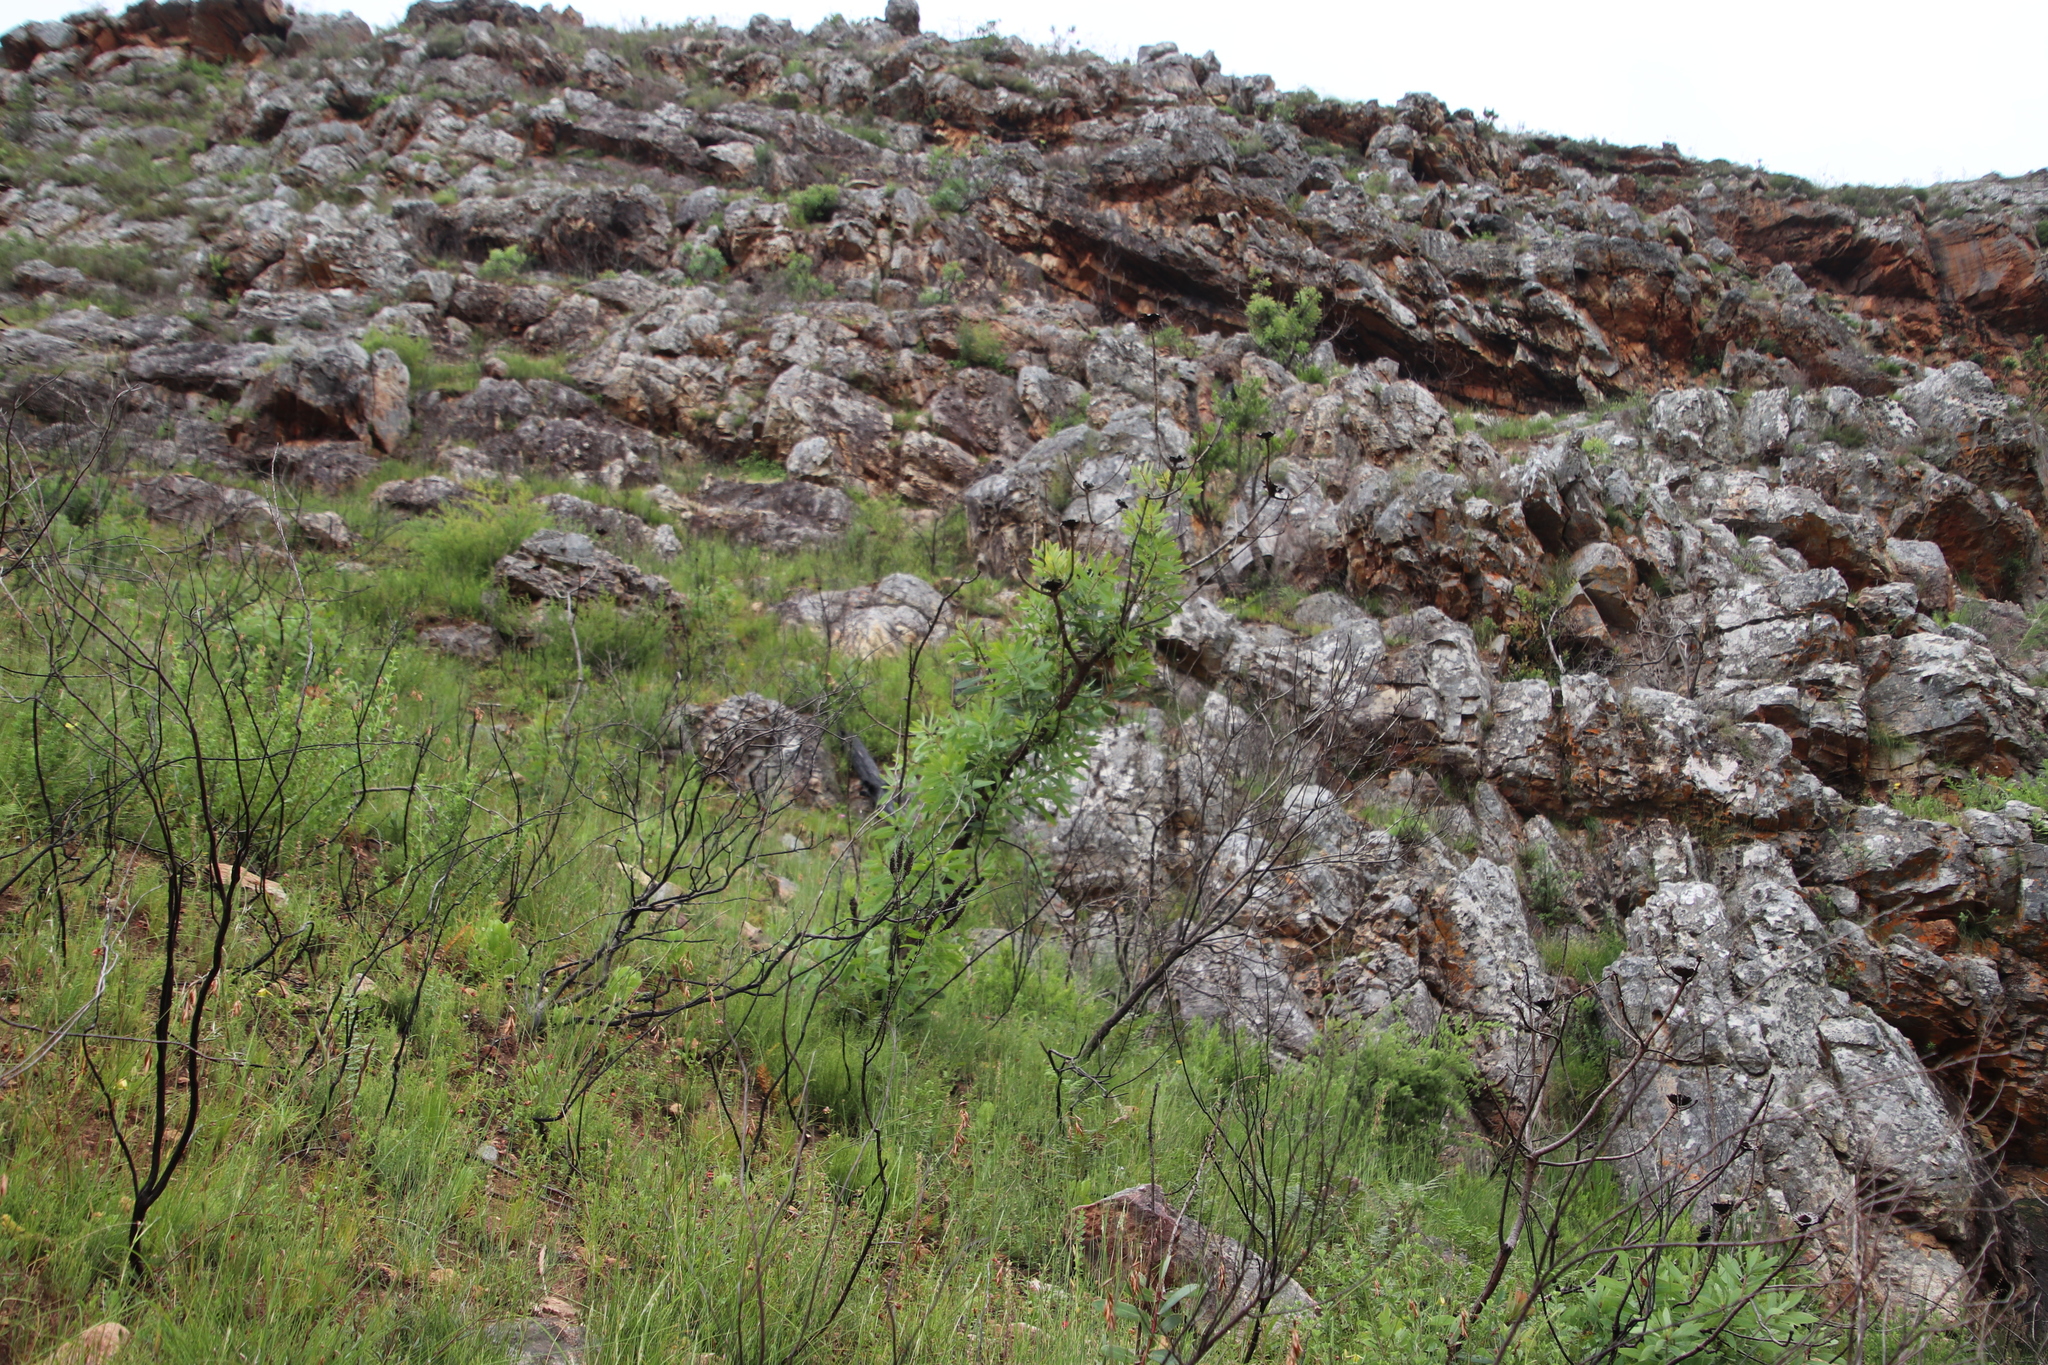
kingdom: Plantae
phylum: Tracheophyta
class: Magnoliopsida
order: Proteales
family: Proteaceae
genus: Protea
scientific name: Protea nitida
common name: Tree protea
